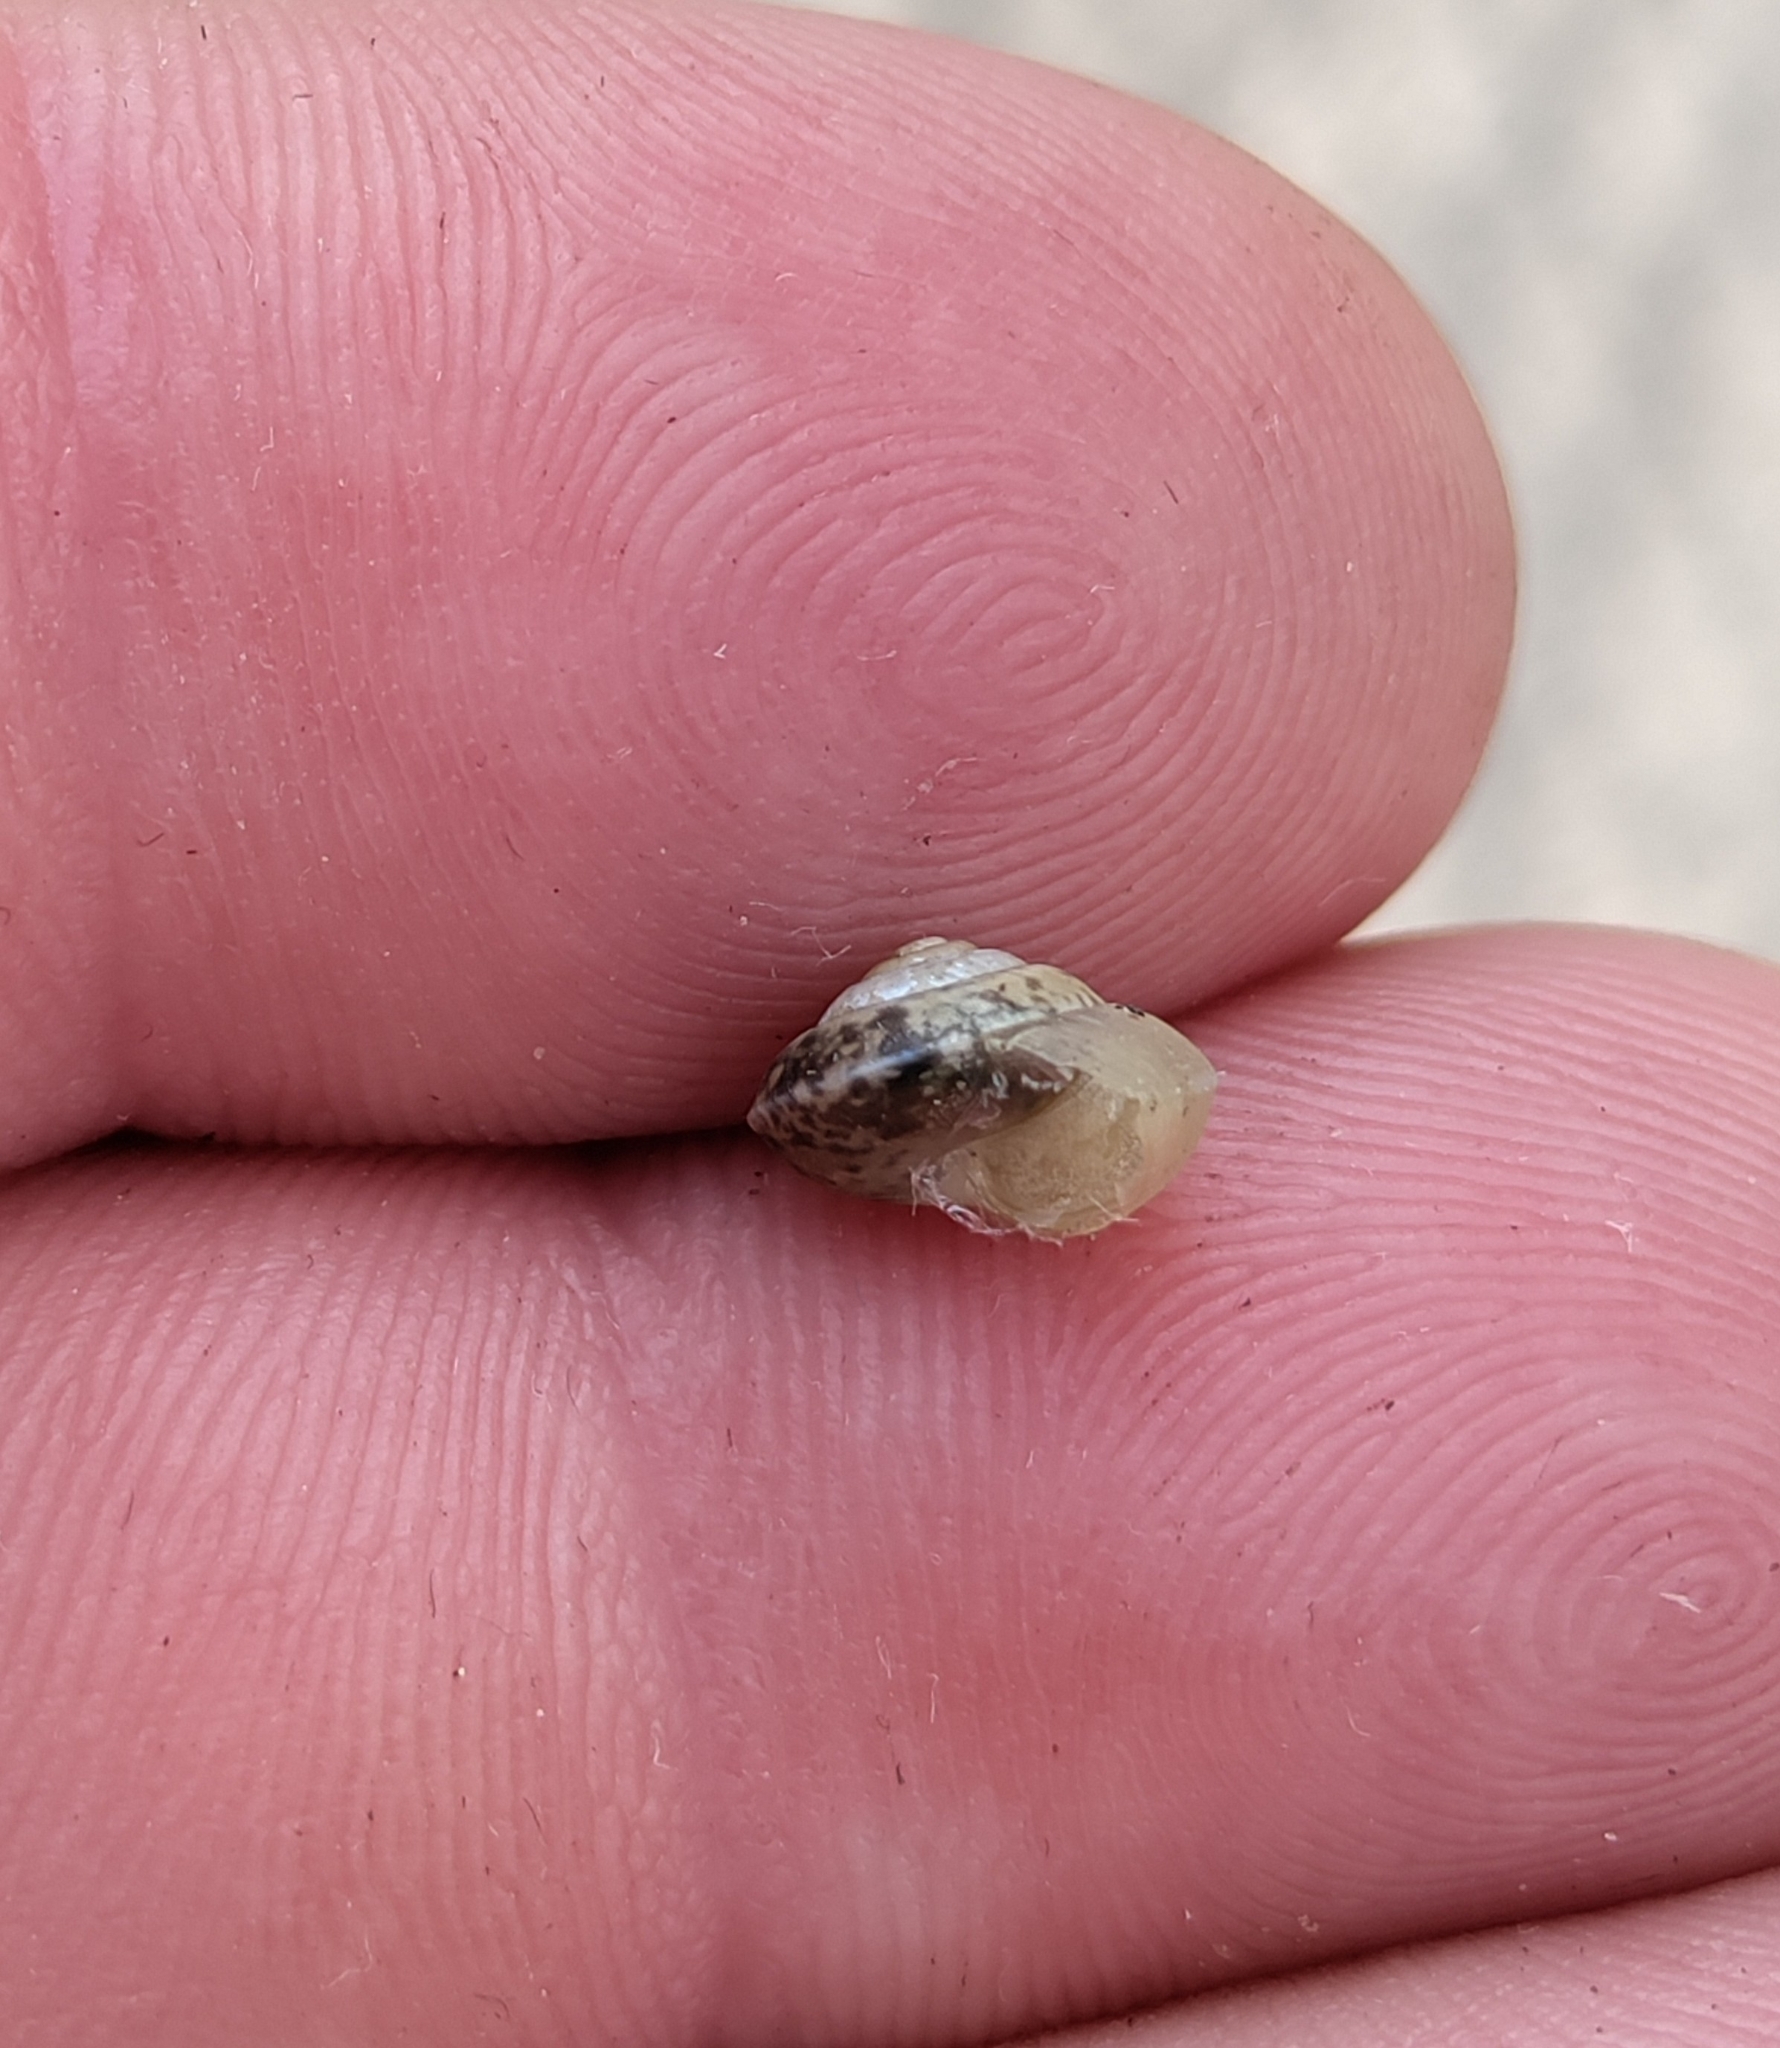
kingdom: Animalia
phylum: Mollusca
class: Gastropoda
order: Stylommatophora
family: Hygromiidae
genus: Hygromia
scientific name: Hygromia cinctella
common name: Girdled snail
